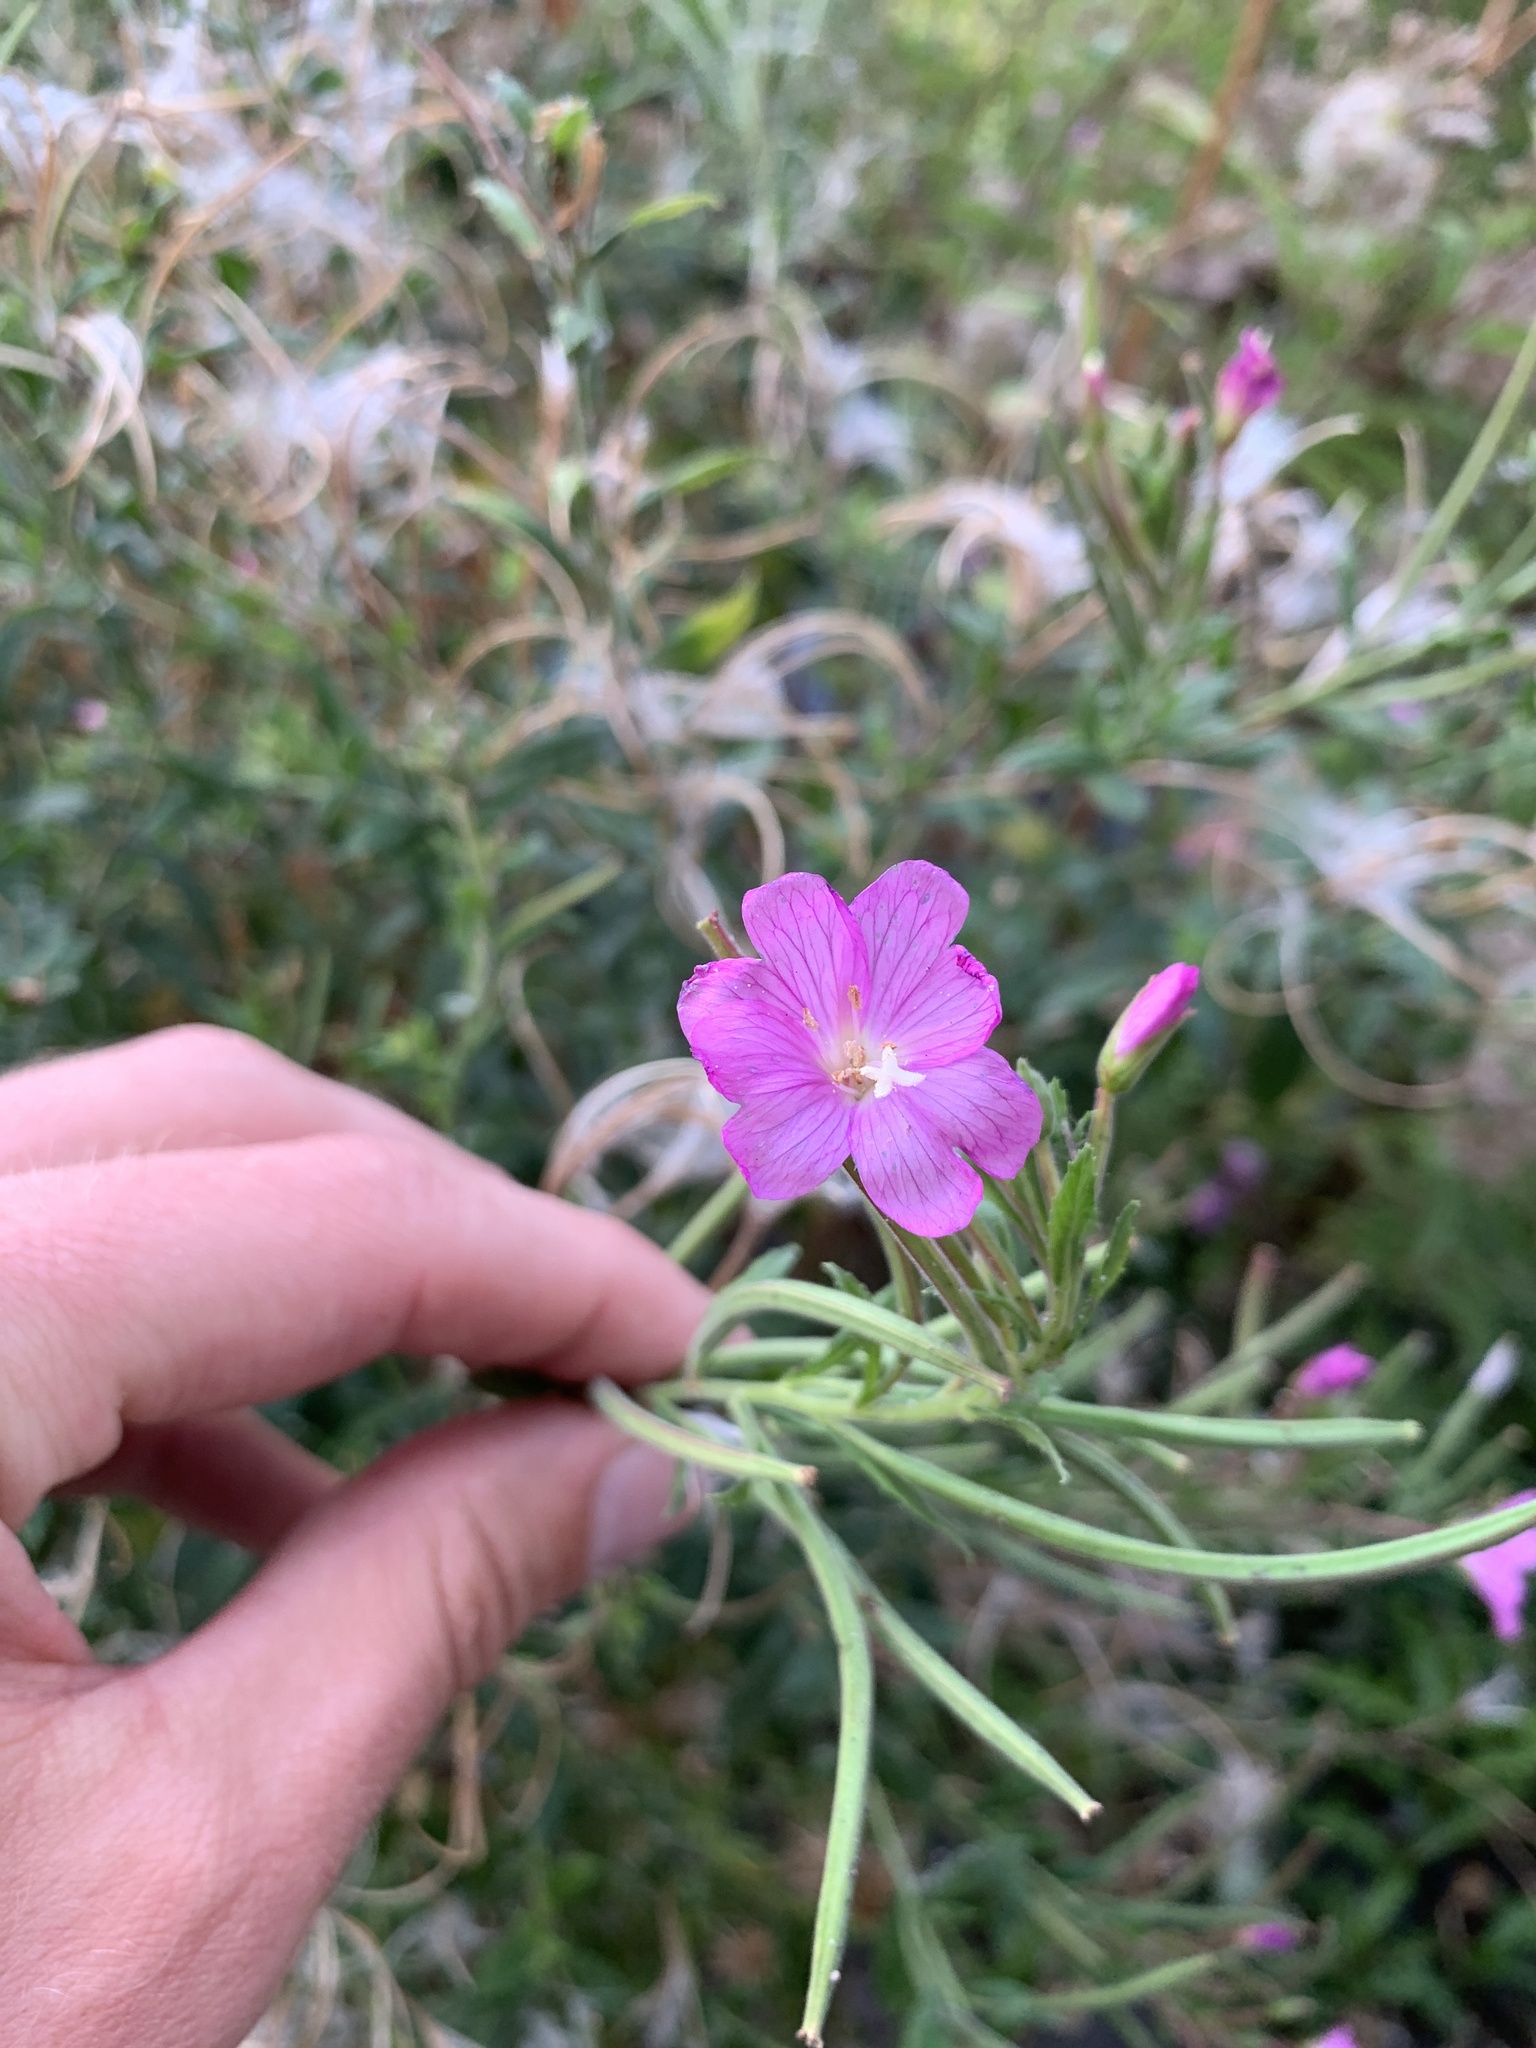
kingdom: Plantae
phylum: Tracheophyta
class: Magnoliopsida
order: Myrtales
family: Onagraceae
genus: Epilobium
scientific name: Epilobium hirsutum
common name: Great willowherb
